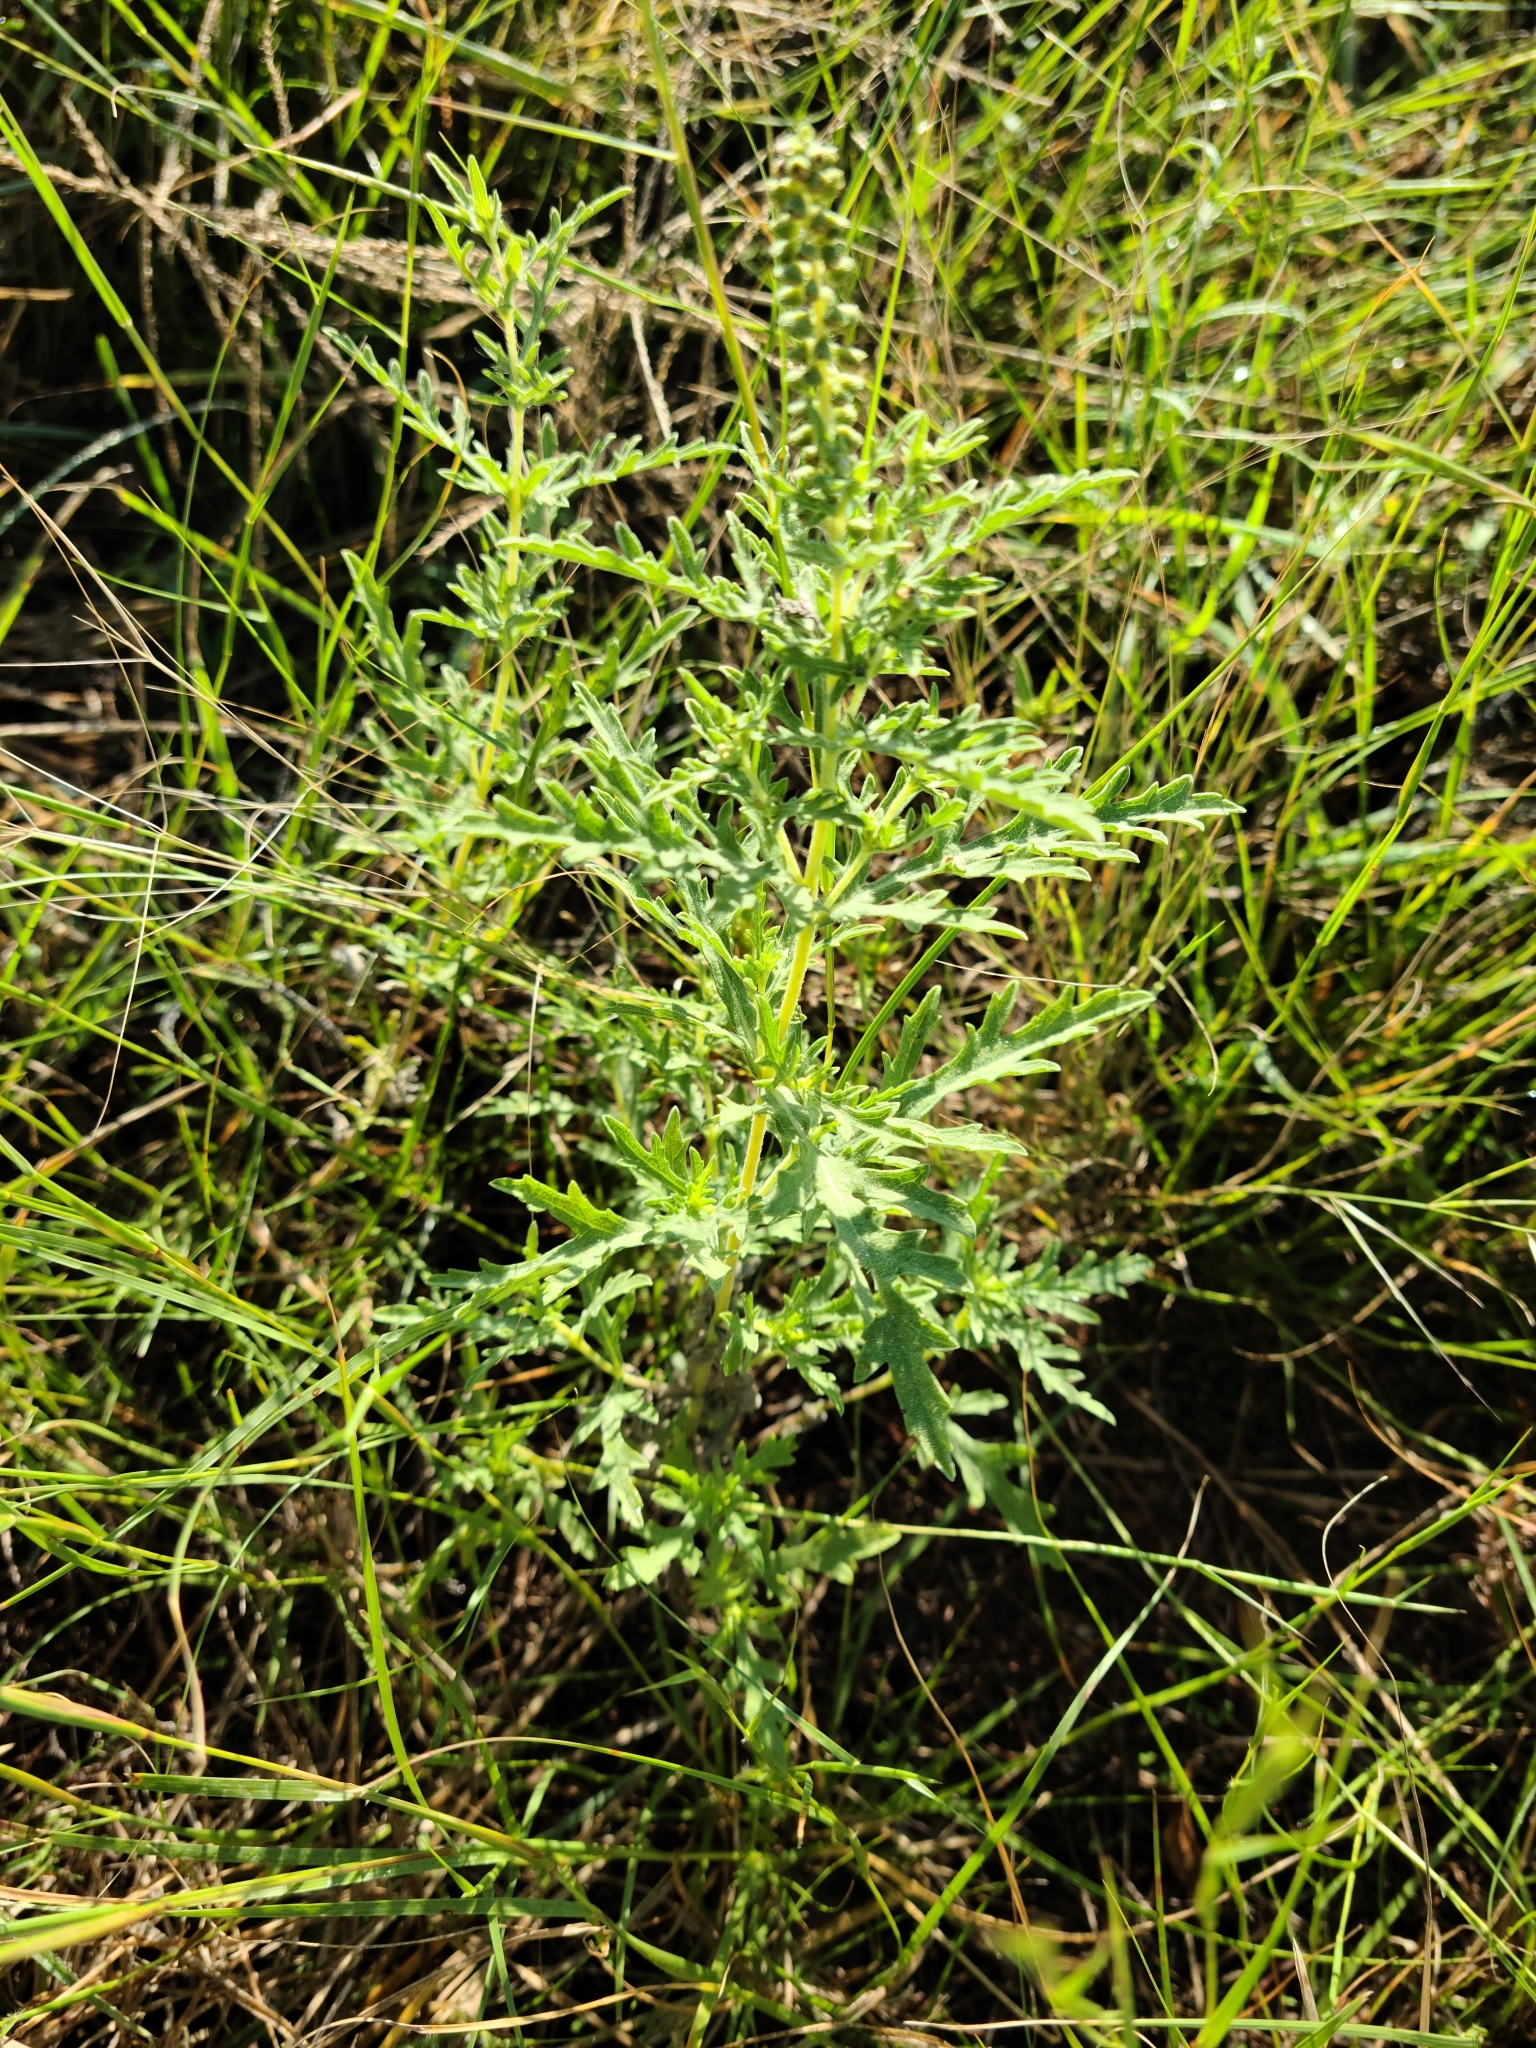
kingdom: Plantae
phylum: Tracheophyta
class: Magnoliopsida
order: Asterales
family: Asteraceae
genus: Ambrosia
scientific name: Ambrosia psilostachya
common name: Perennial ragweed
